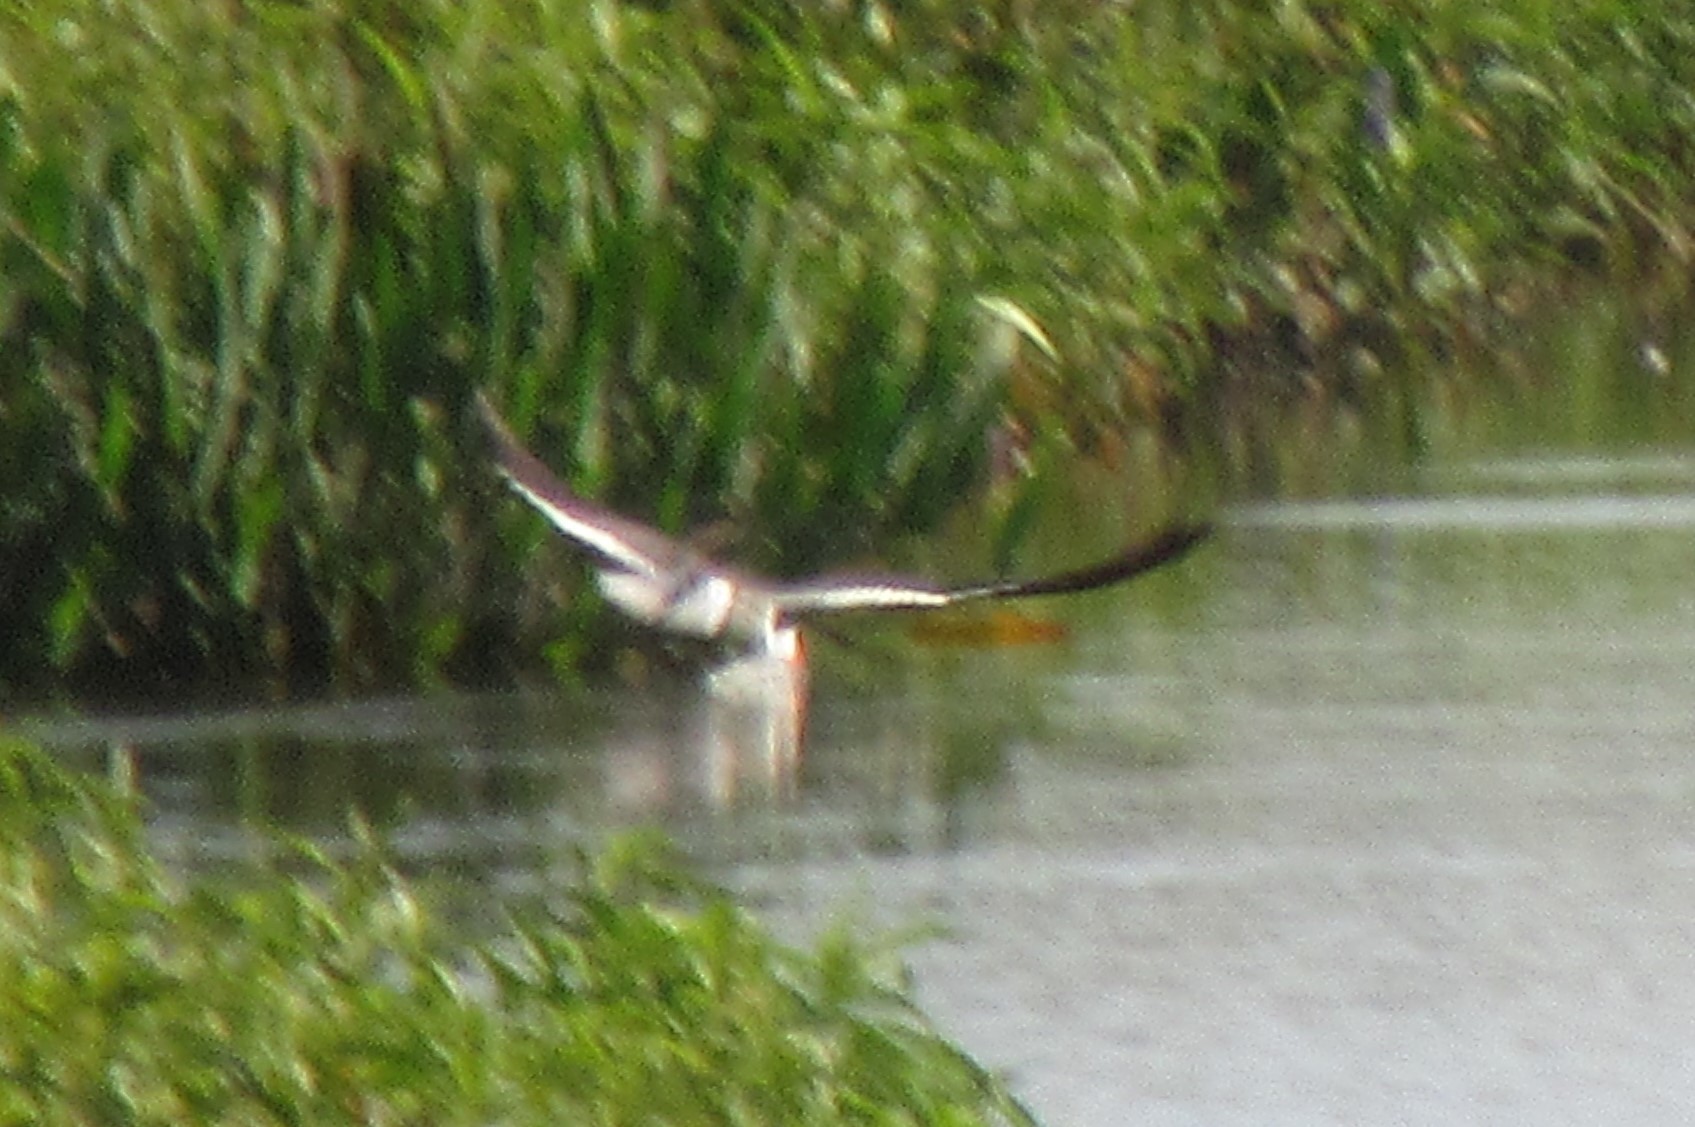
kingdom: Animalia
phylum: Chordata
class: Aves
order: Charadriiformes
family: Laridae
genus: Rynchops
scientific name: Rynchops niger
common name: Black skimmer
